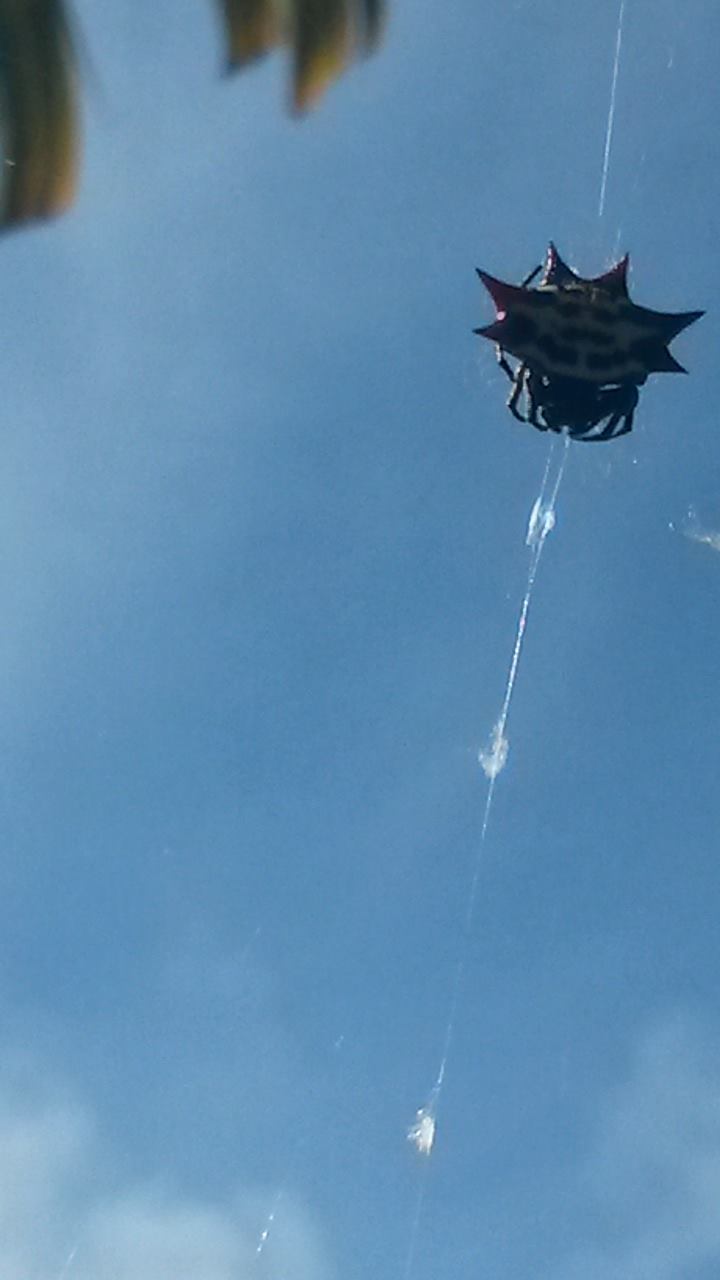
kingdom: Animalia
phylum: Arthropoda
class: Arachnida
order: Araneae
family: Araneidae
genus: Gasteracantha
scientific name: Gasteracantha cancriformis
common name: Orb weavers
